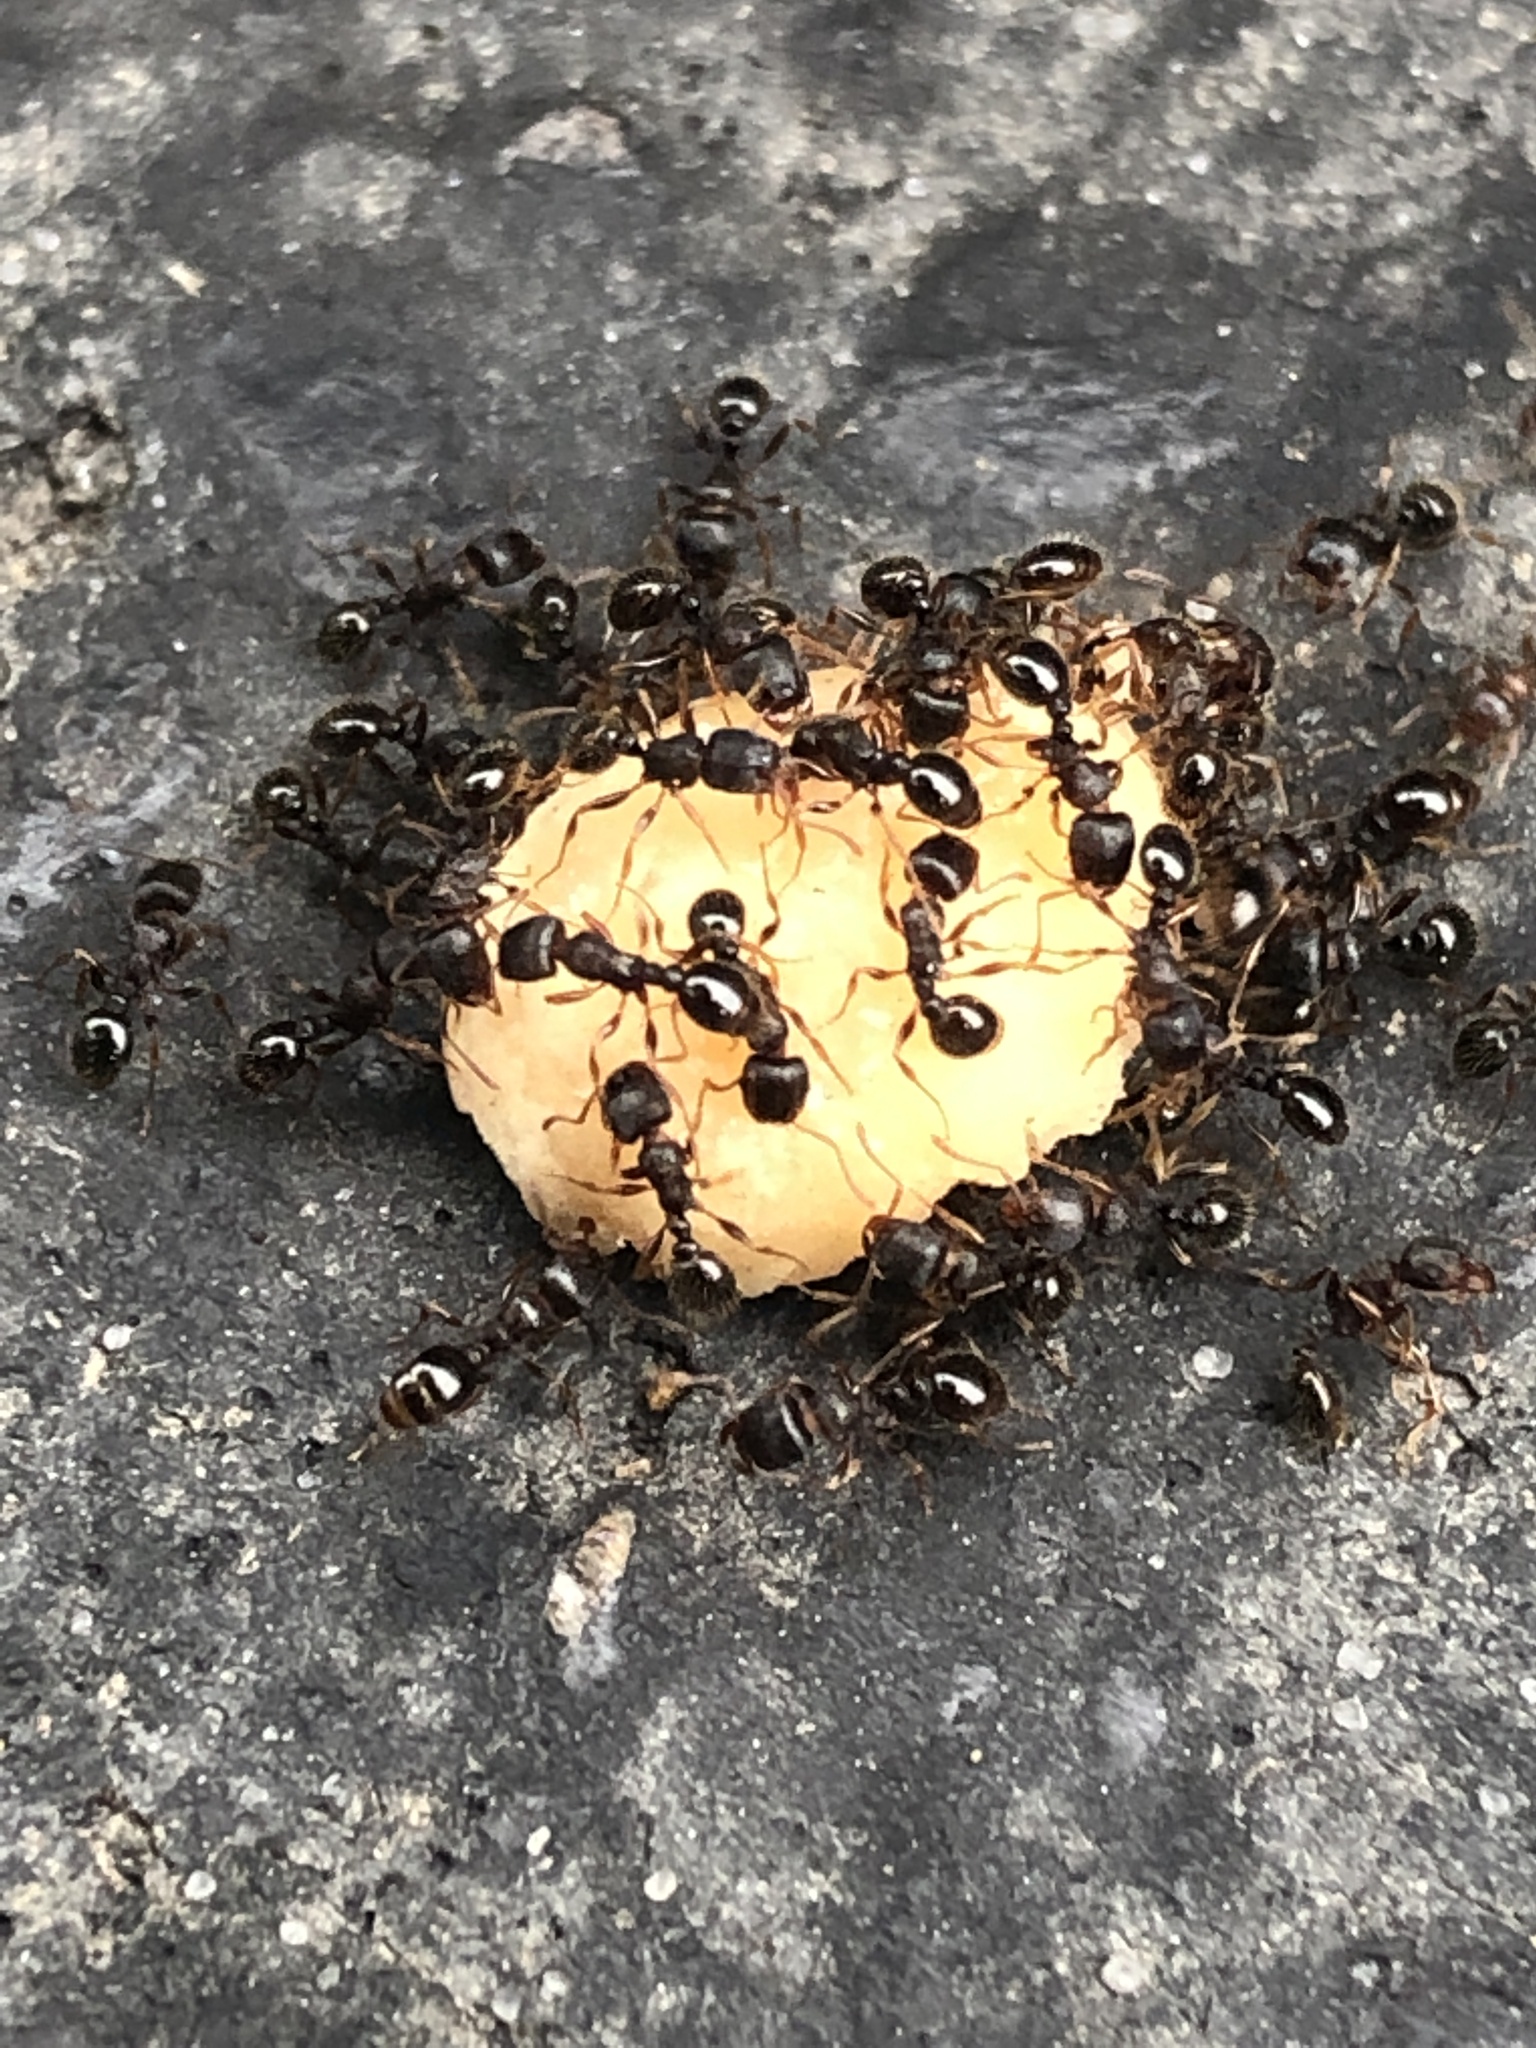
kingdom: Animalia
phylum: Arthropoda
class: Insecta
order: Hymenoptera
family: Formicidae
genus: Tetramorium
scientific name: Tetramorium immigrans
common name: Pavement ant
